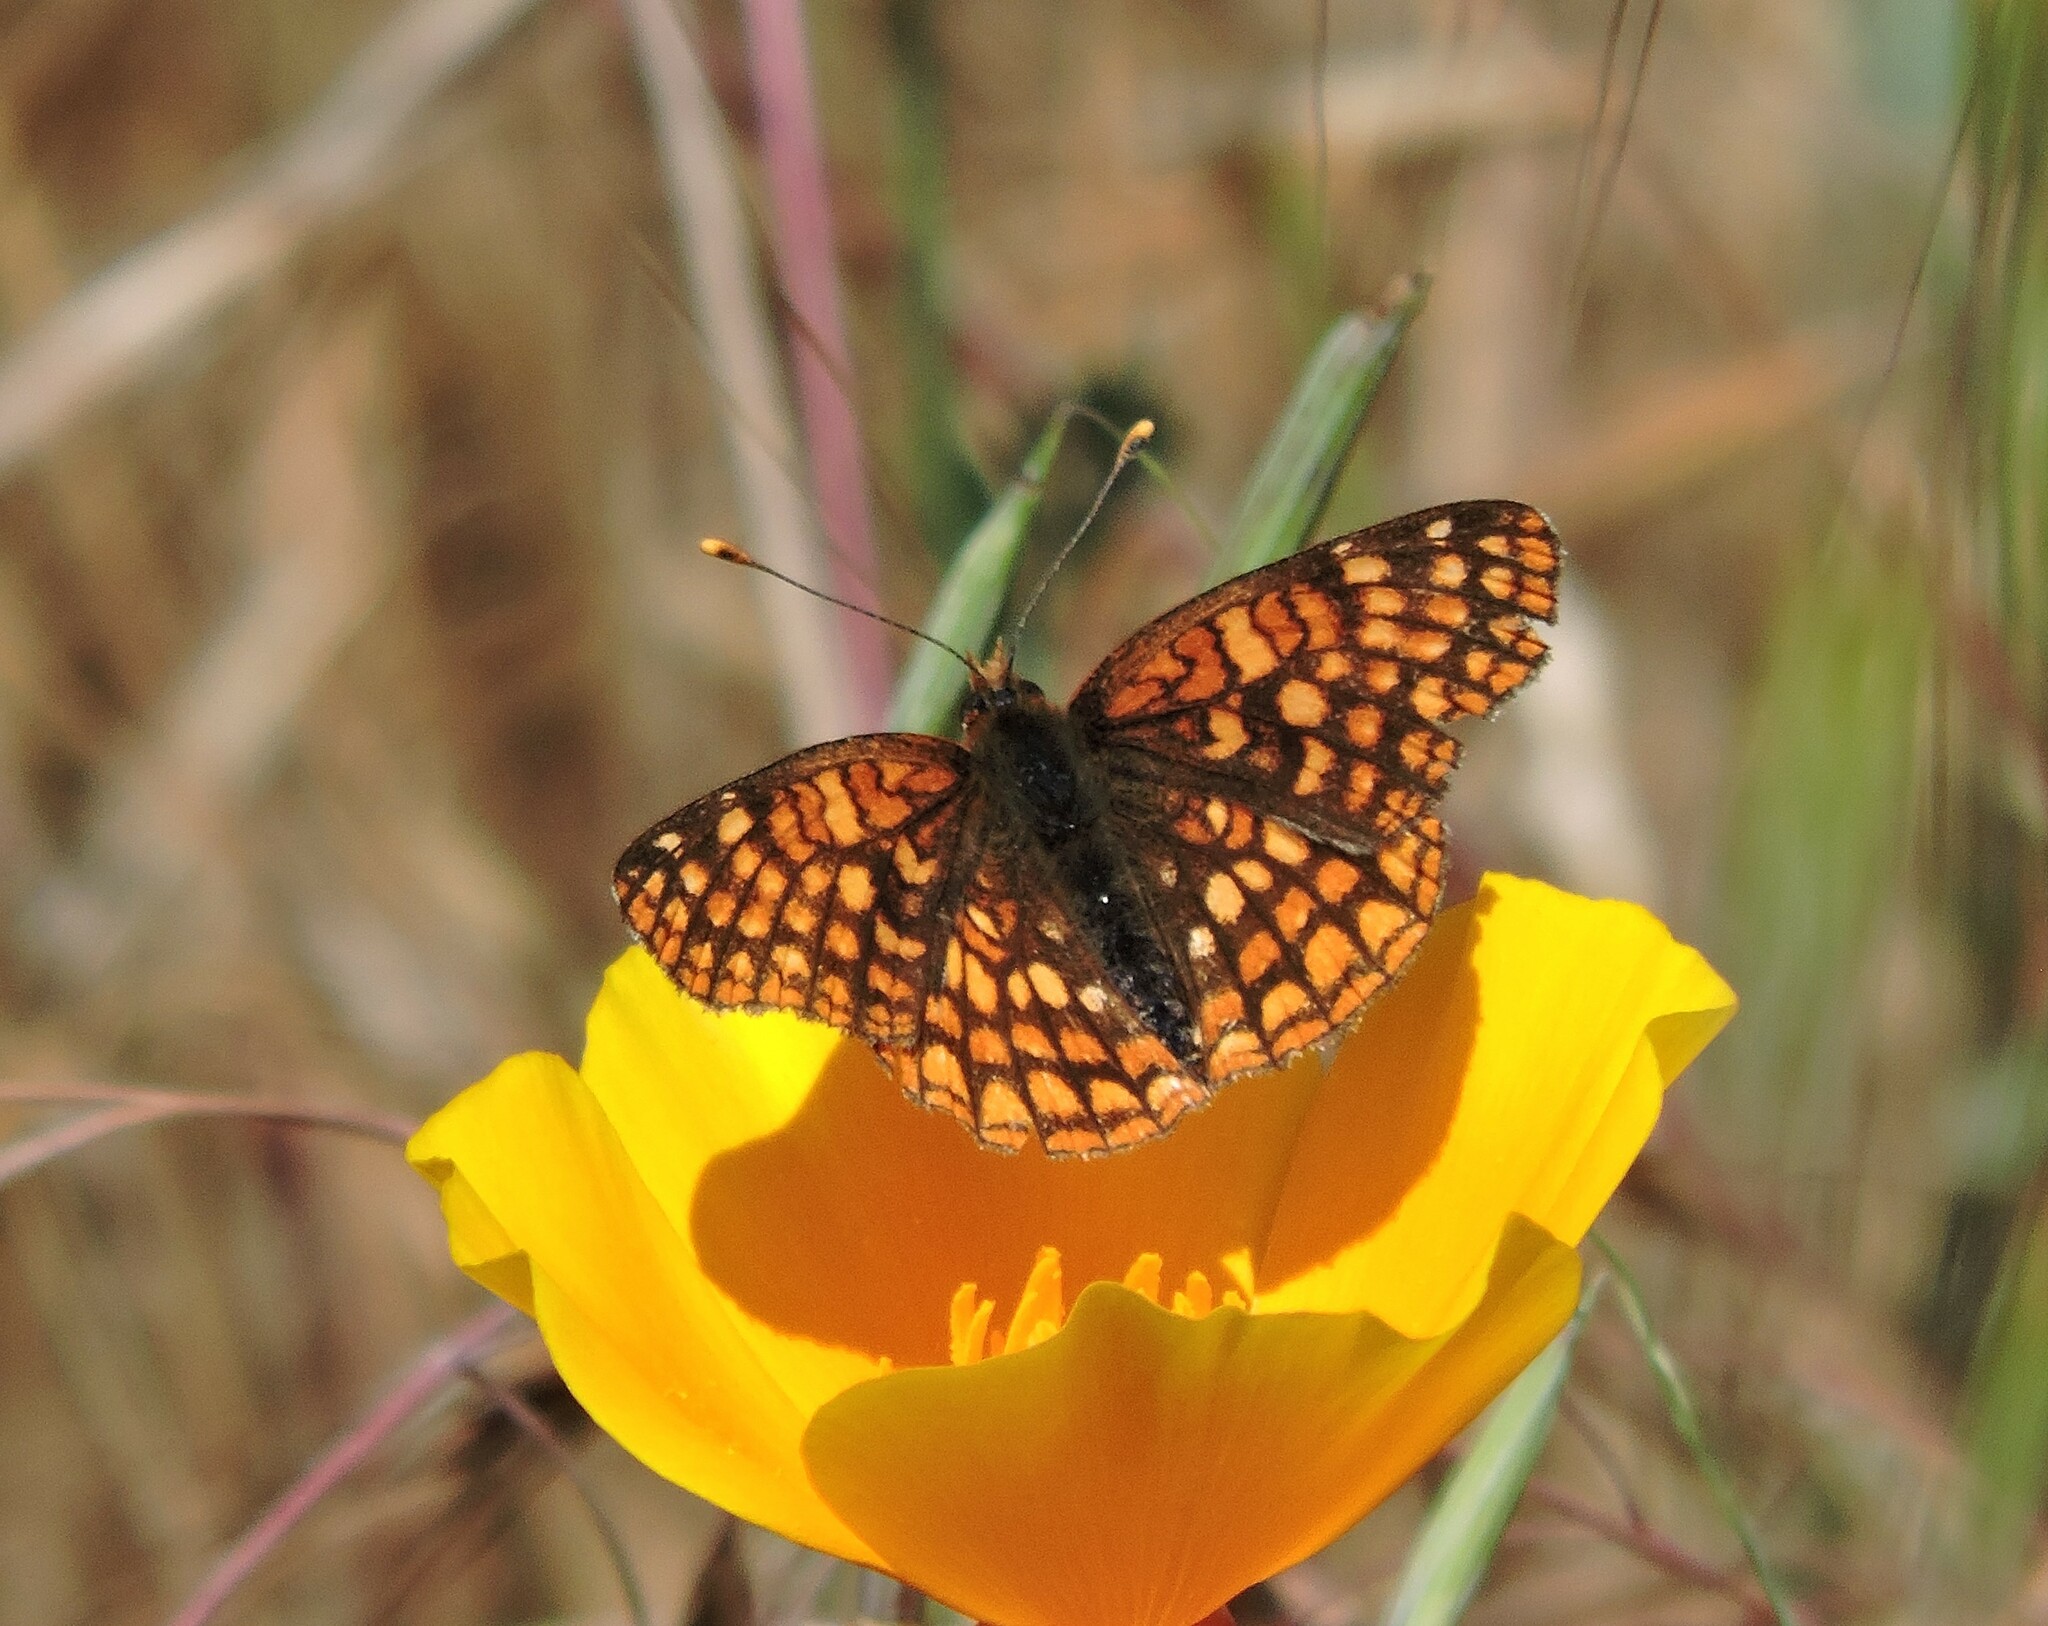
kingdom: Animalia
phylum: Arthropoda
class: Insecta
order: Lepidoptera
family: Nymphalidae
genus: Chlosyne
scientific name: Chlosyne palla
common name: Northern checkerspot
